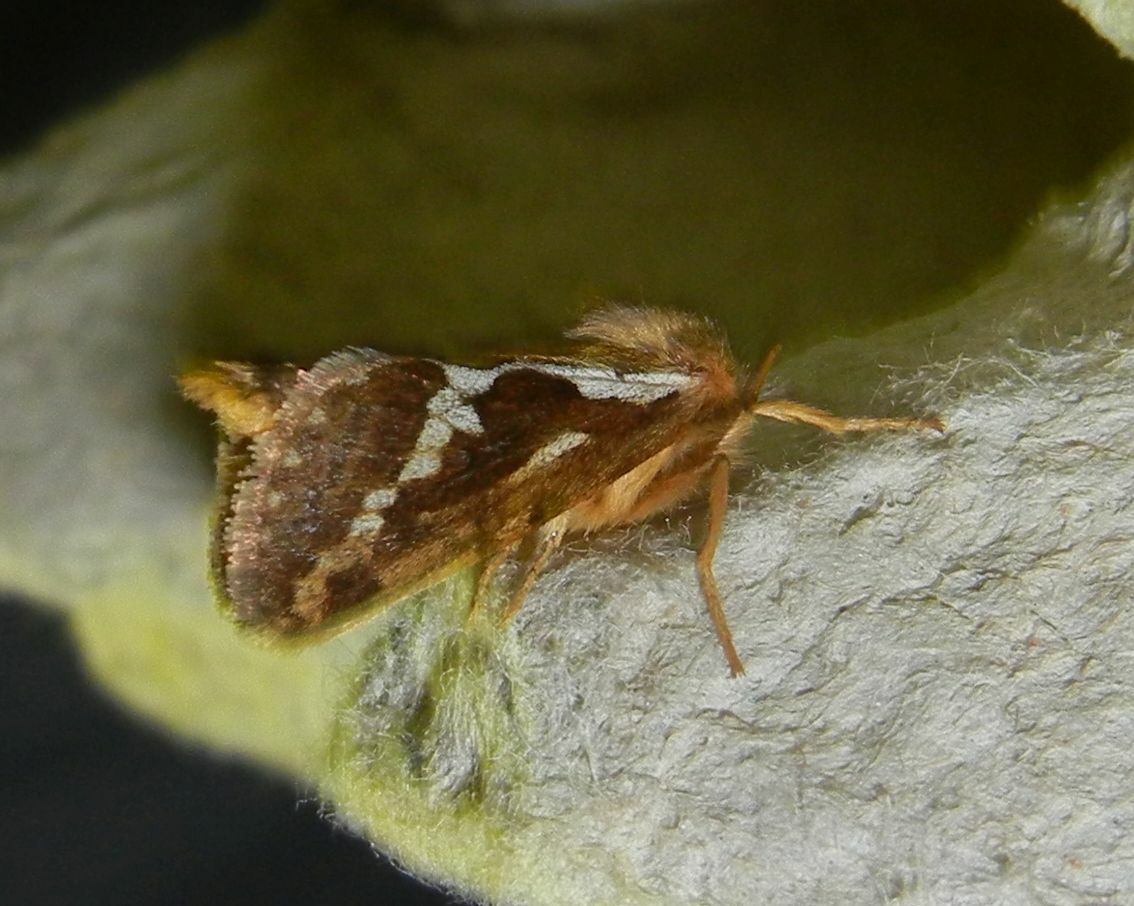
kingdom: Animalia
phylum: Arthropoda
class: Insecta
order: Lepidoptera
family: Hepialidae
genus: Korscheltellus
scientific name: Korscheltellus lupulina
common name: Common swift
